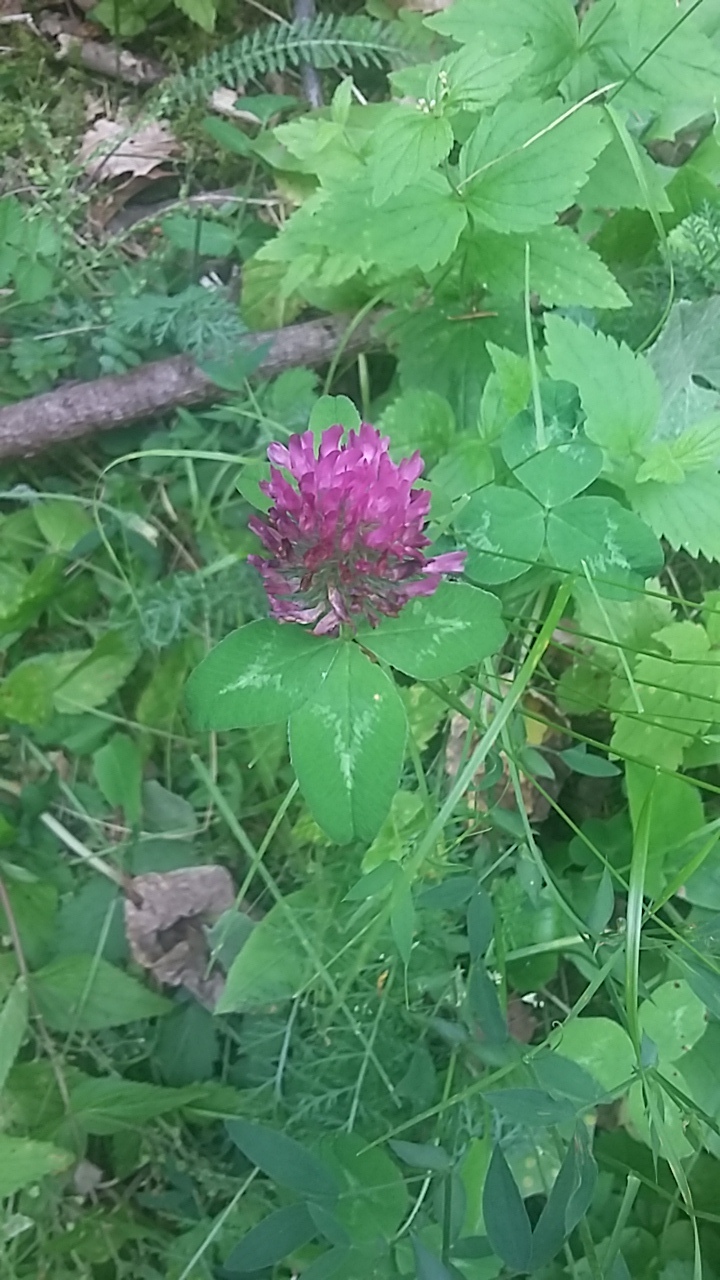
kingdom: Plantae
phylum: Tracheophyta
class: Magnoliopsida
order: Fabales
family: Fabaceae
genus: Trifolium
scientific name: Trifolium pratense
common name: Red clover
